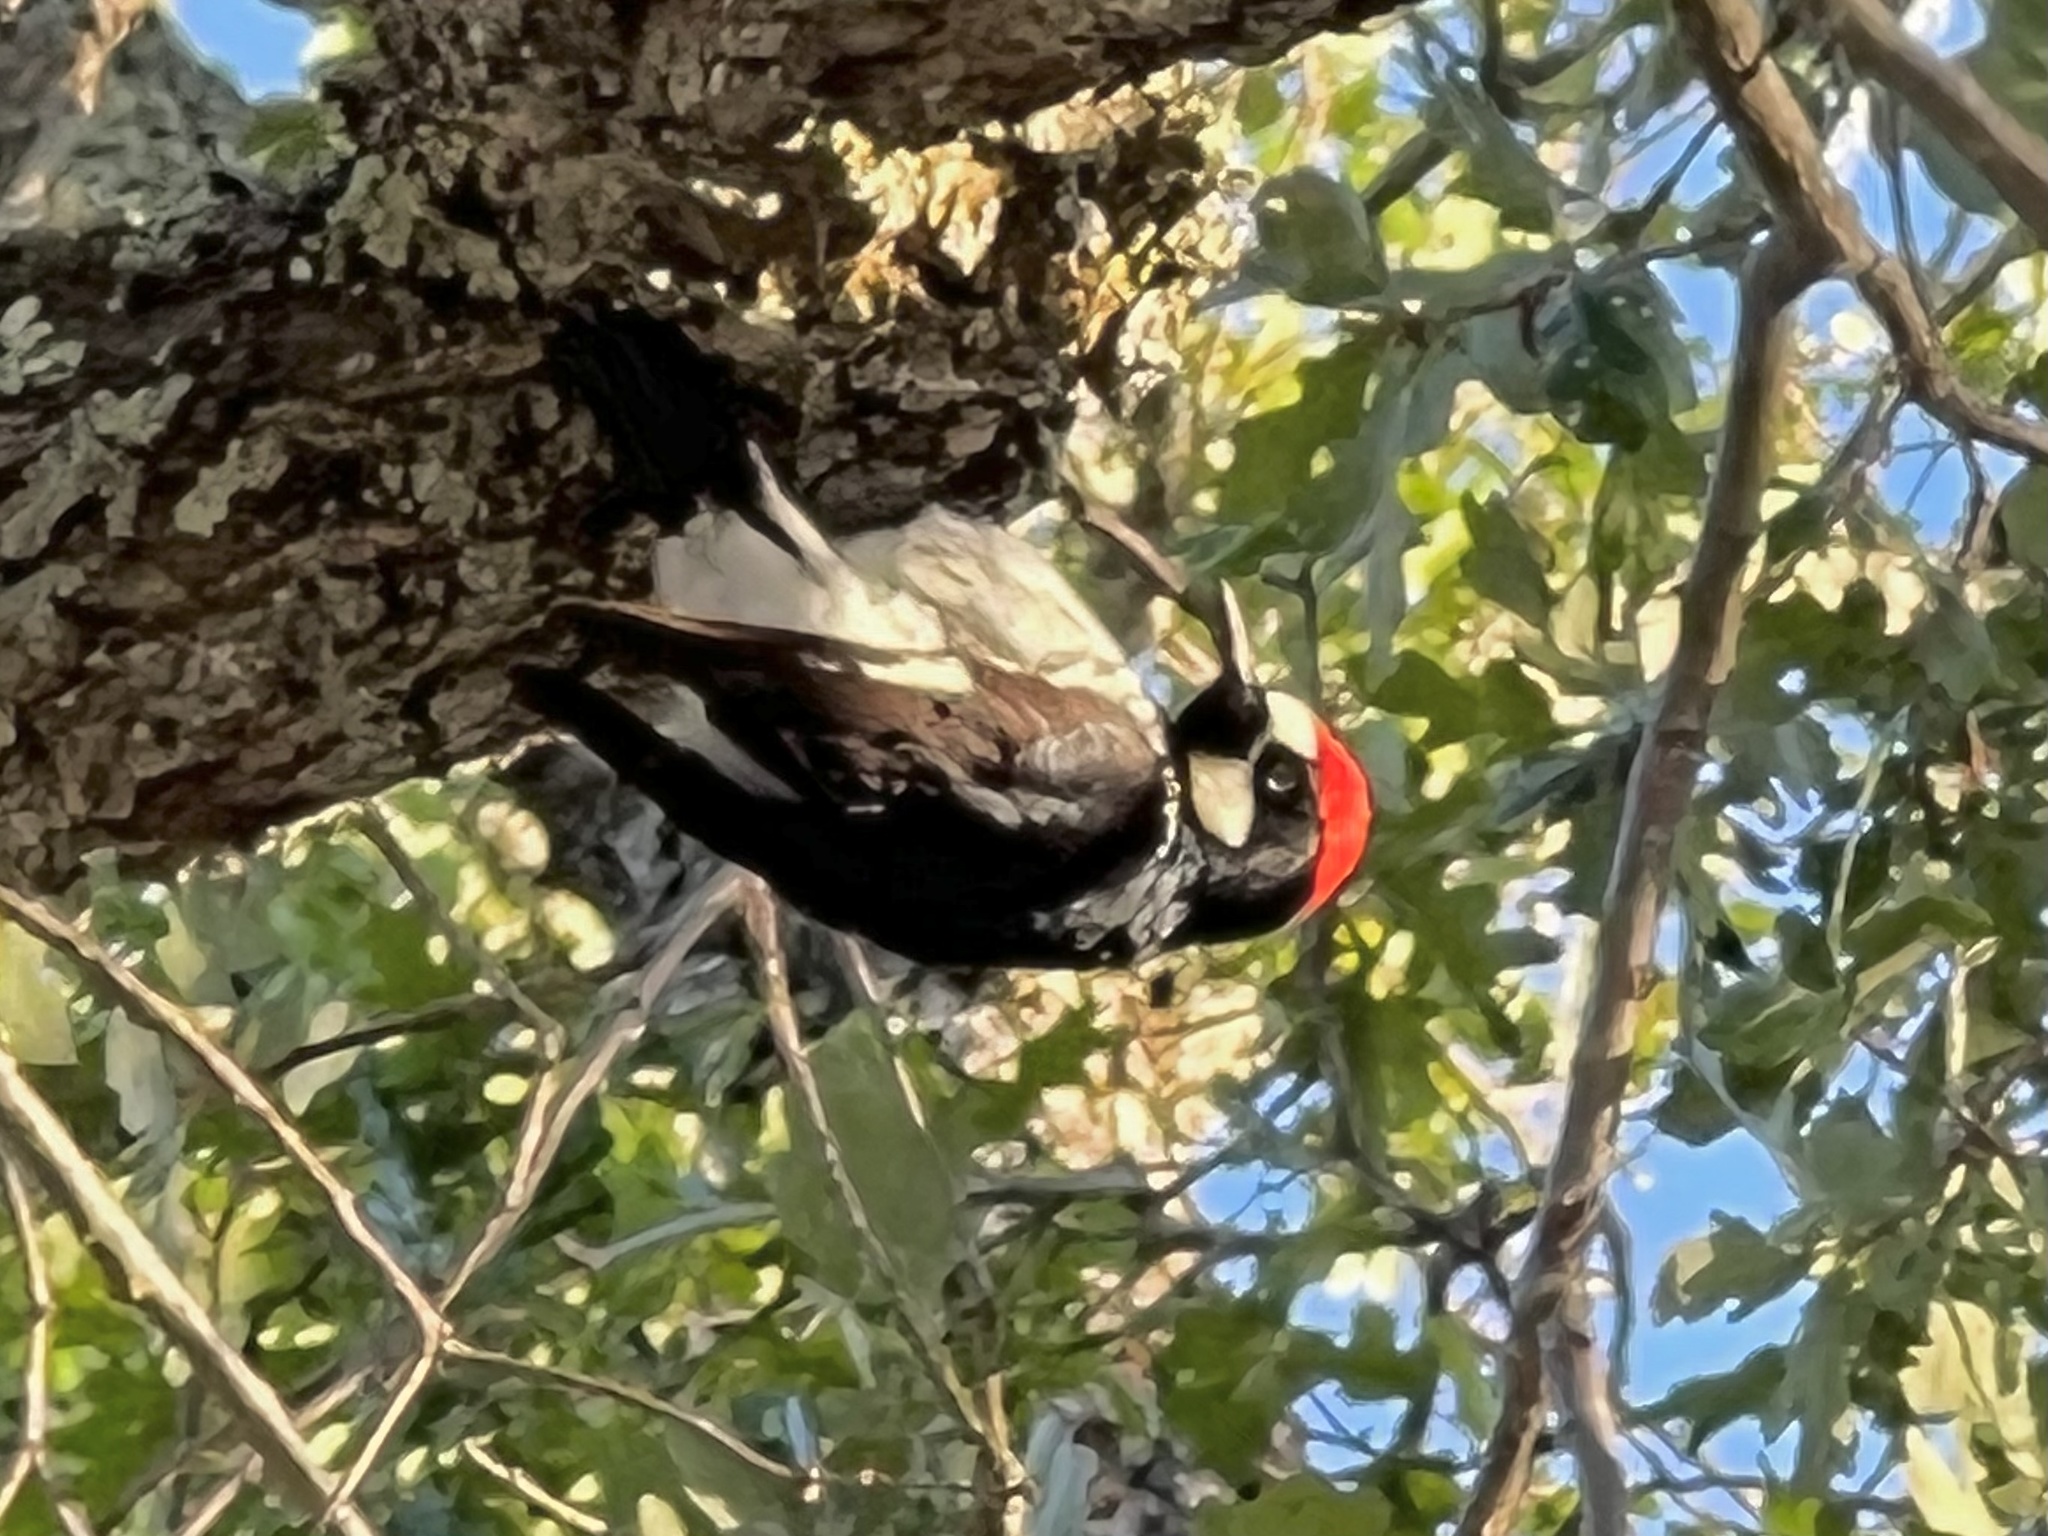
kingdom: Animalia
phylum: Chordata
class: Aves
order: Piciformes
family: Picidae
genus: Melanerpes
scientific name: Melanerpes formicivorus
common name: Acorn woodpecker
